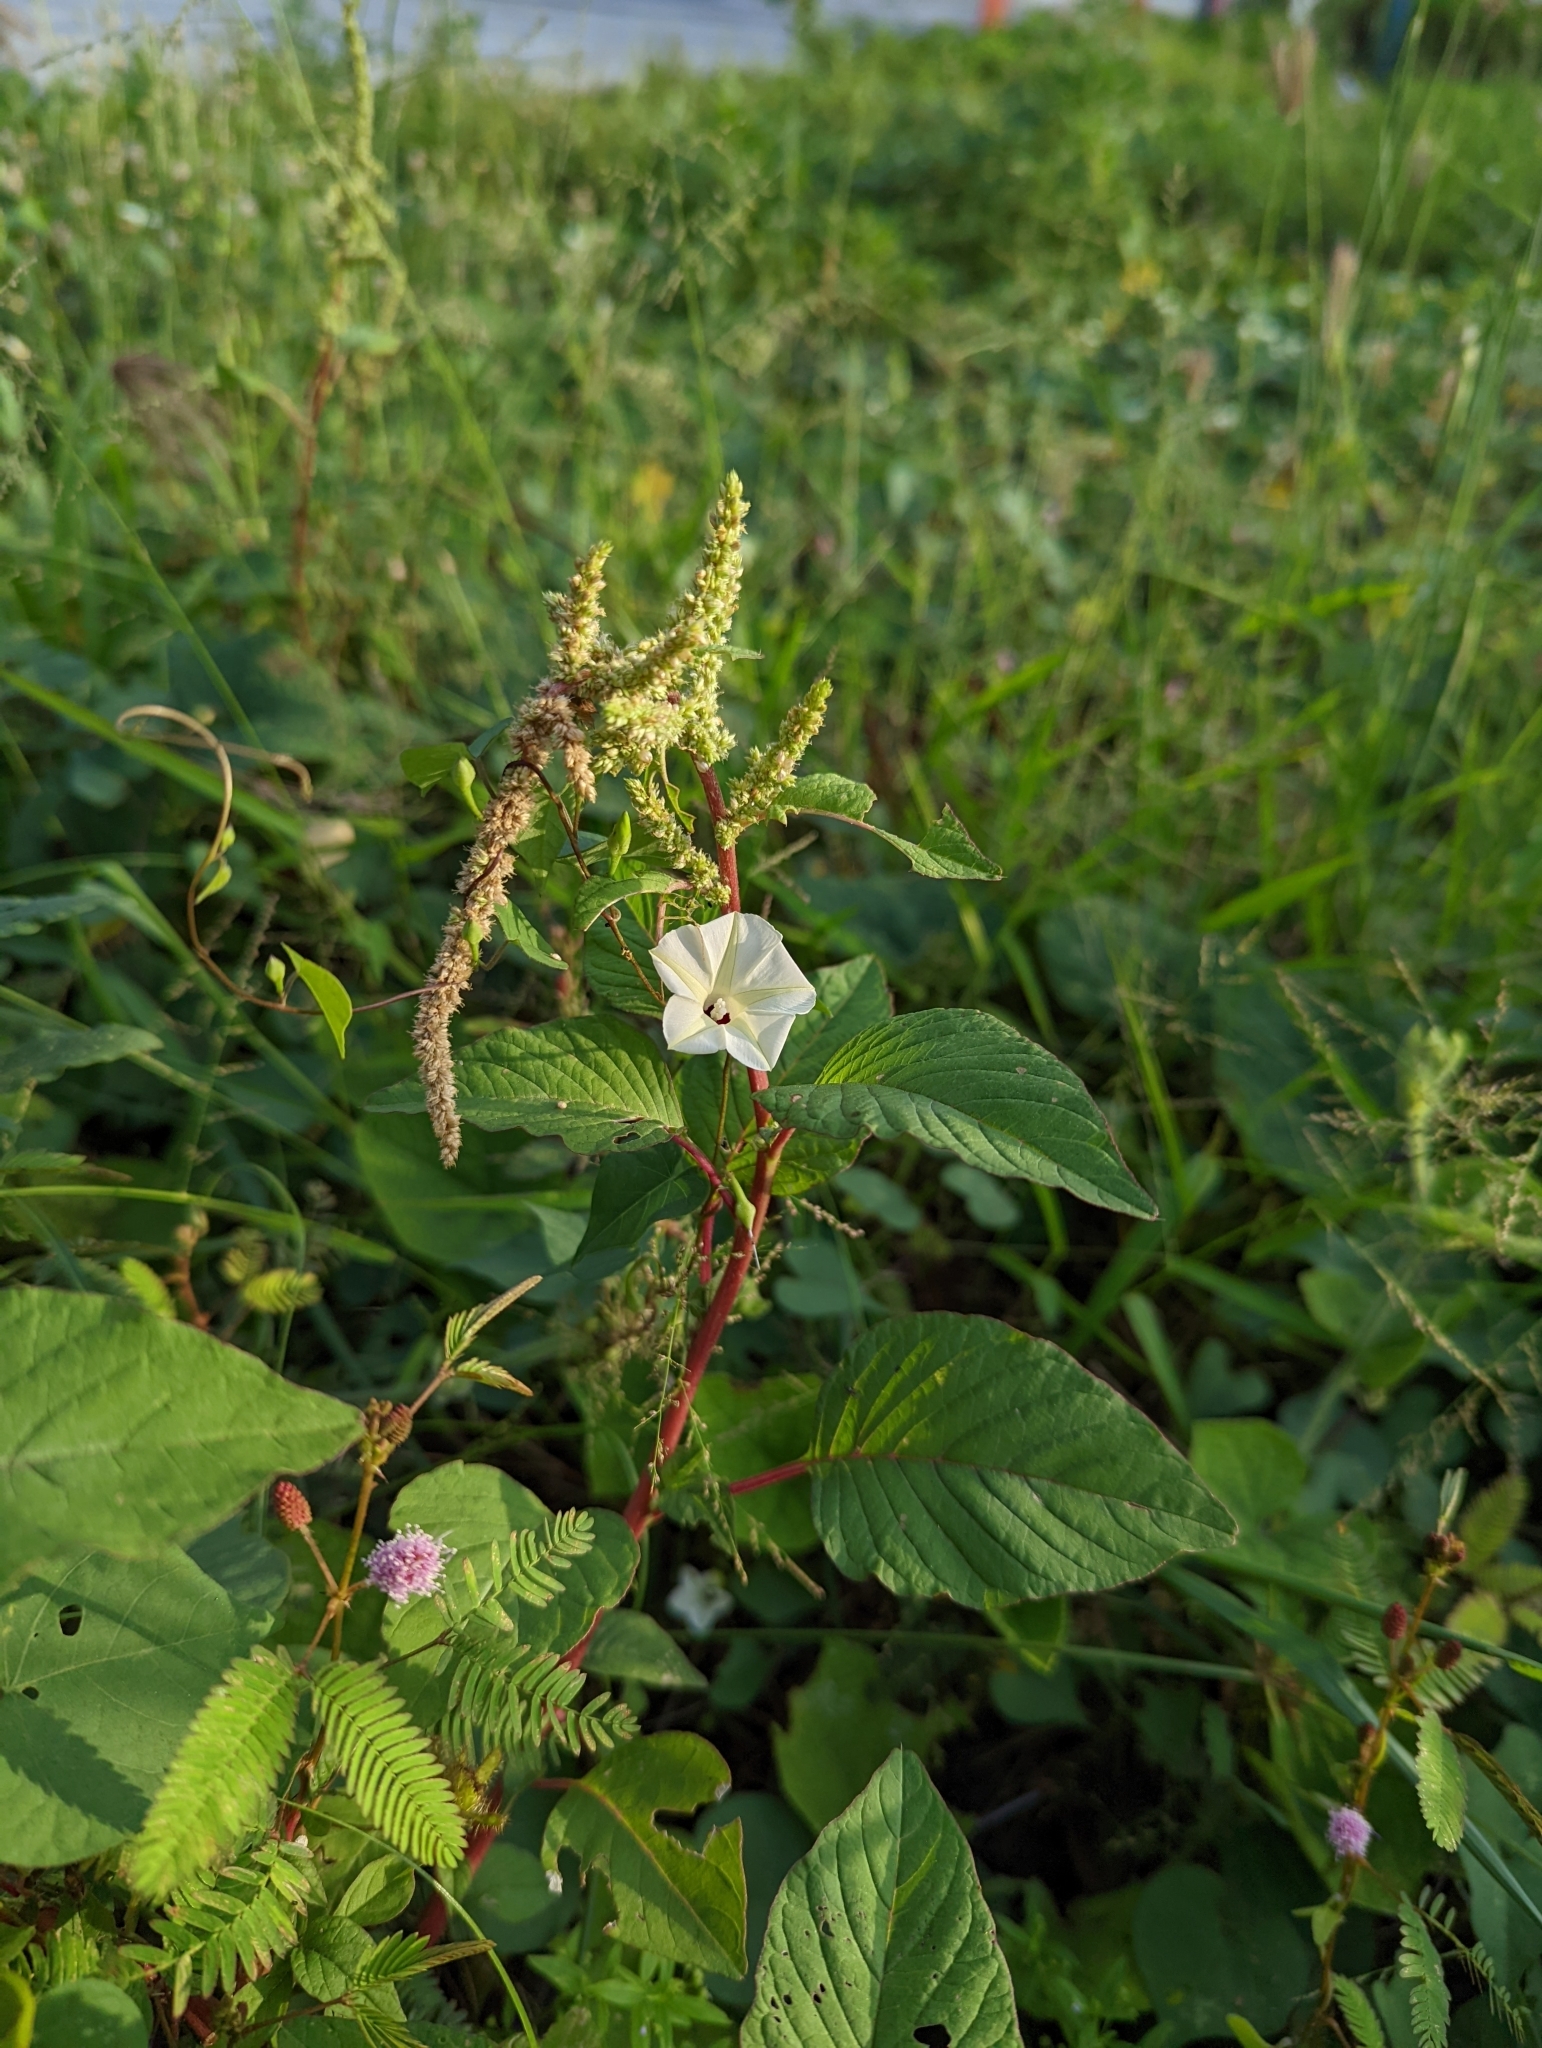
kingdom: Plantae
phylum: Tracheophyta
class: Magnoliopsida
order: Solanales
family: Convolvulaceae
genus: Ipomoea
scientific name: Ipomoea obscura
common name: Obscure morning-glory
